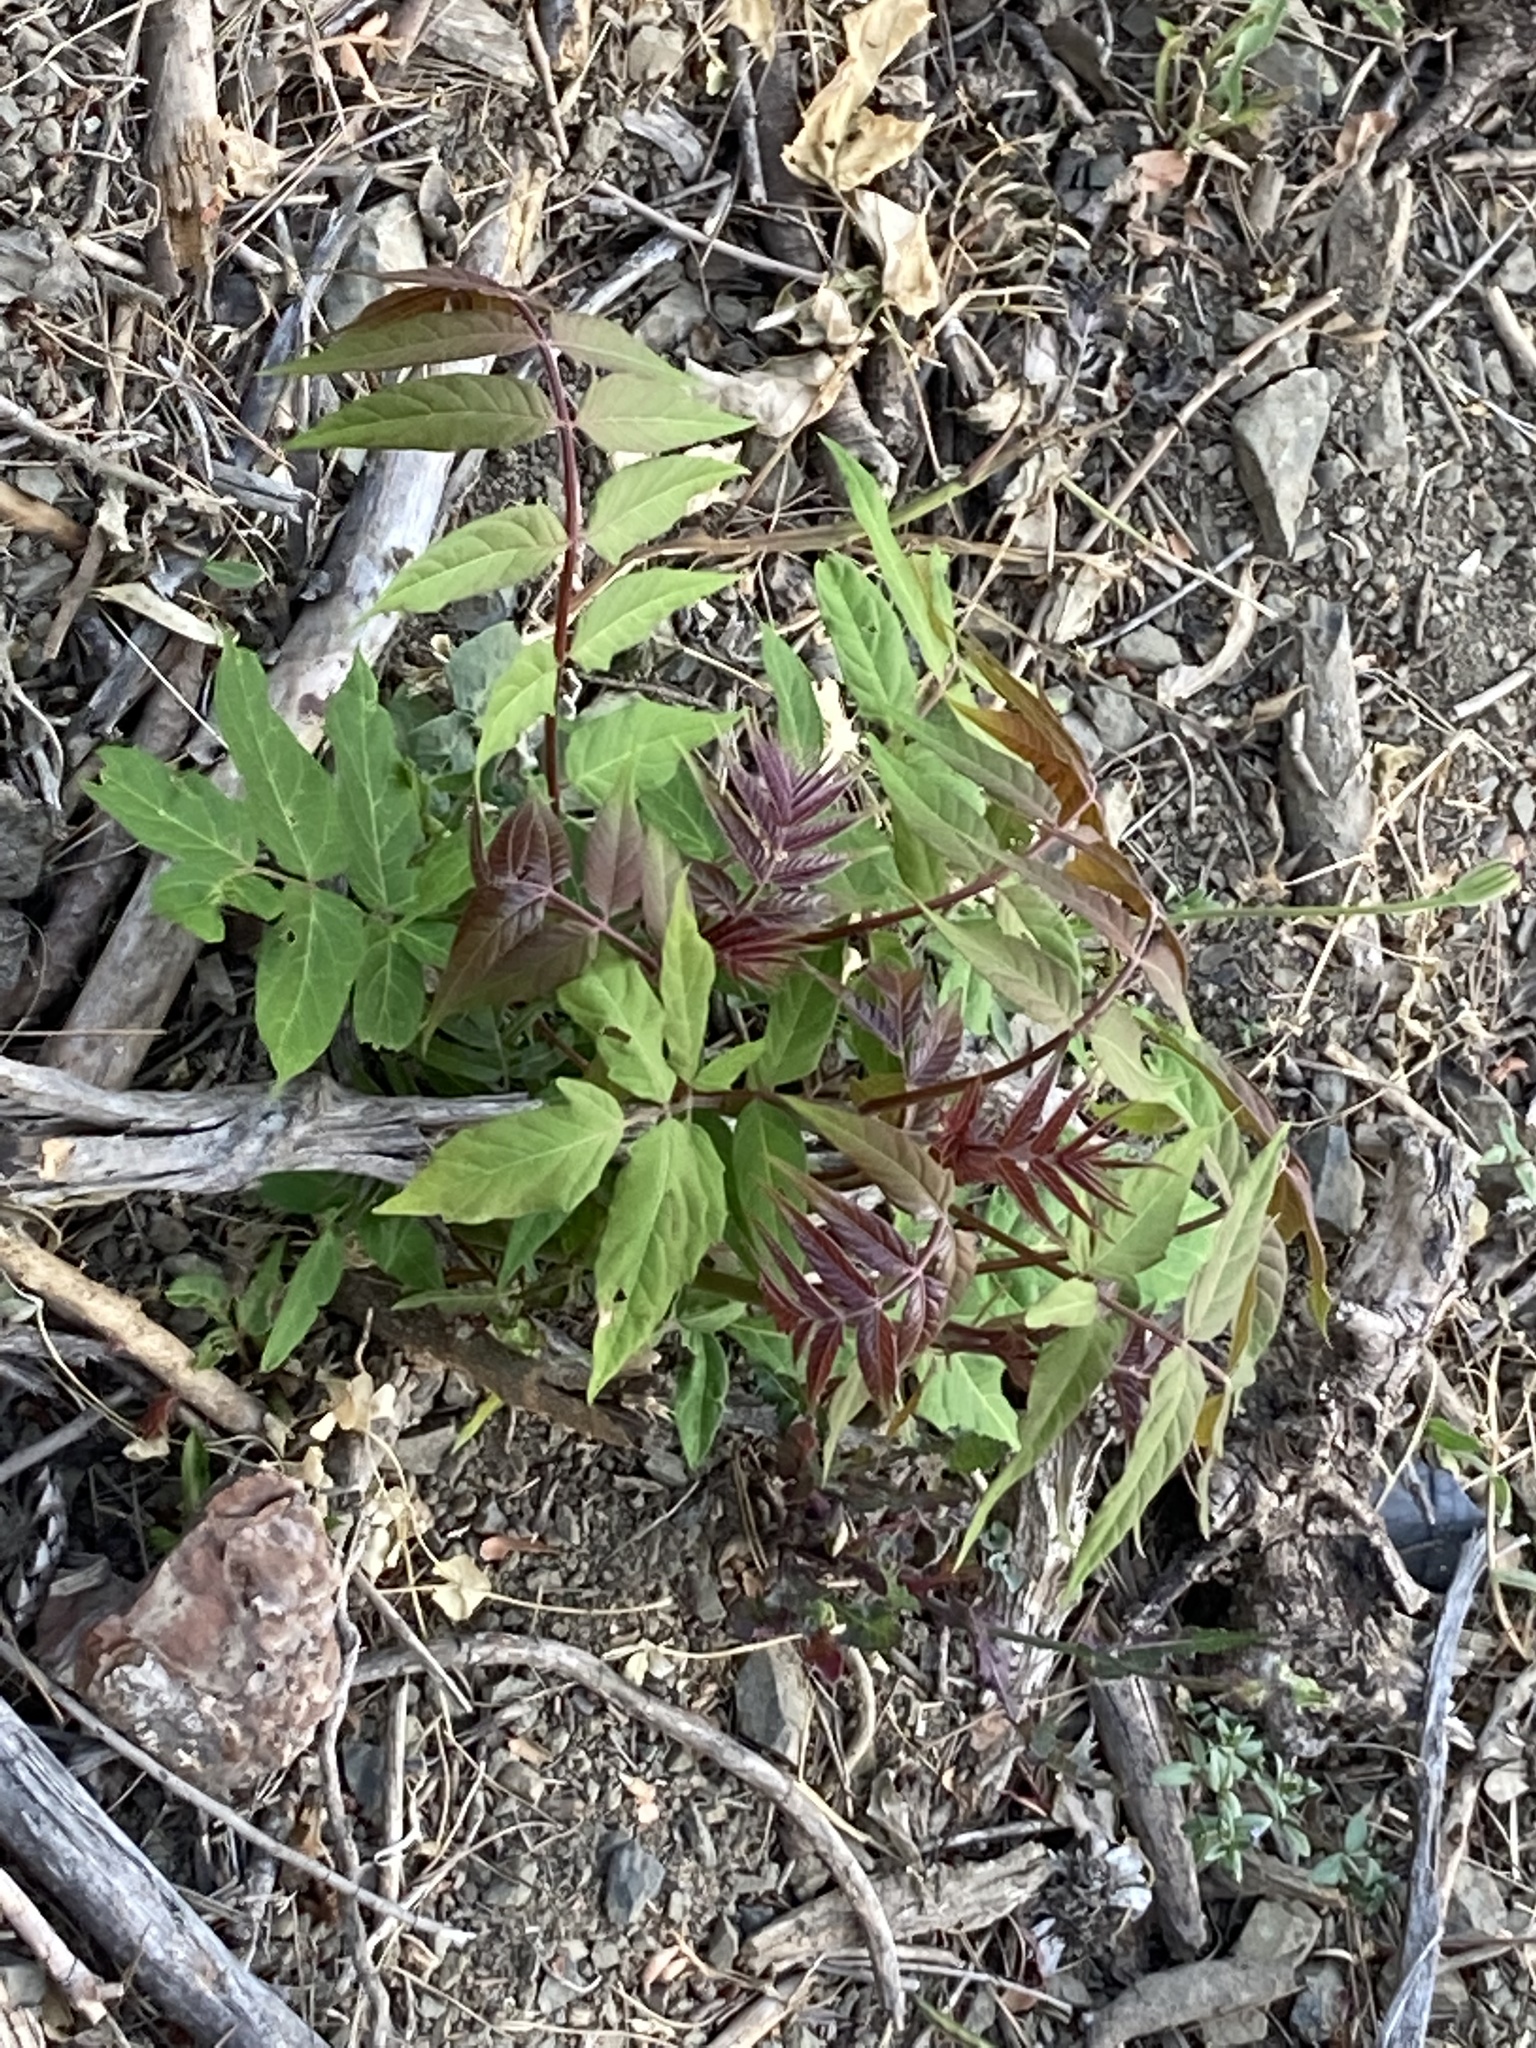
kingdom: Plantae
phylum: Tracheophyta
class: Magnoliopsida
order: Sapindales
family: Simaroubaceae
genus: Ailanthus
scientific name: Ailanthus altissima
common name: Tree-of-heaven
